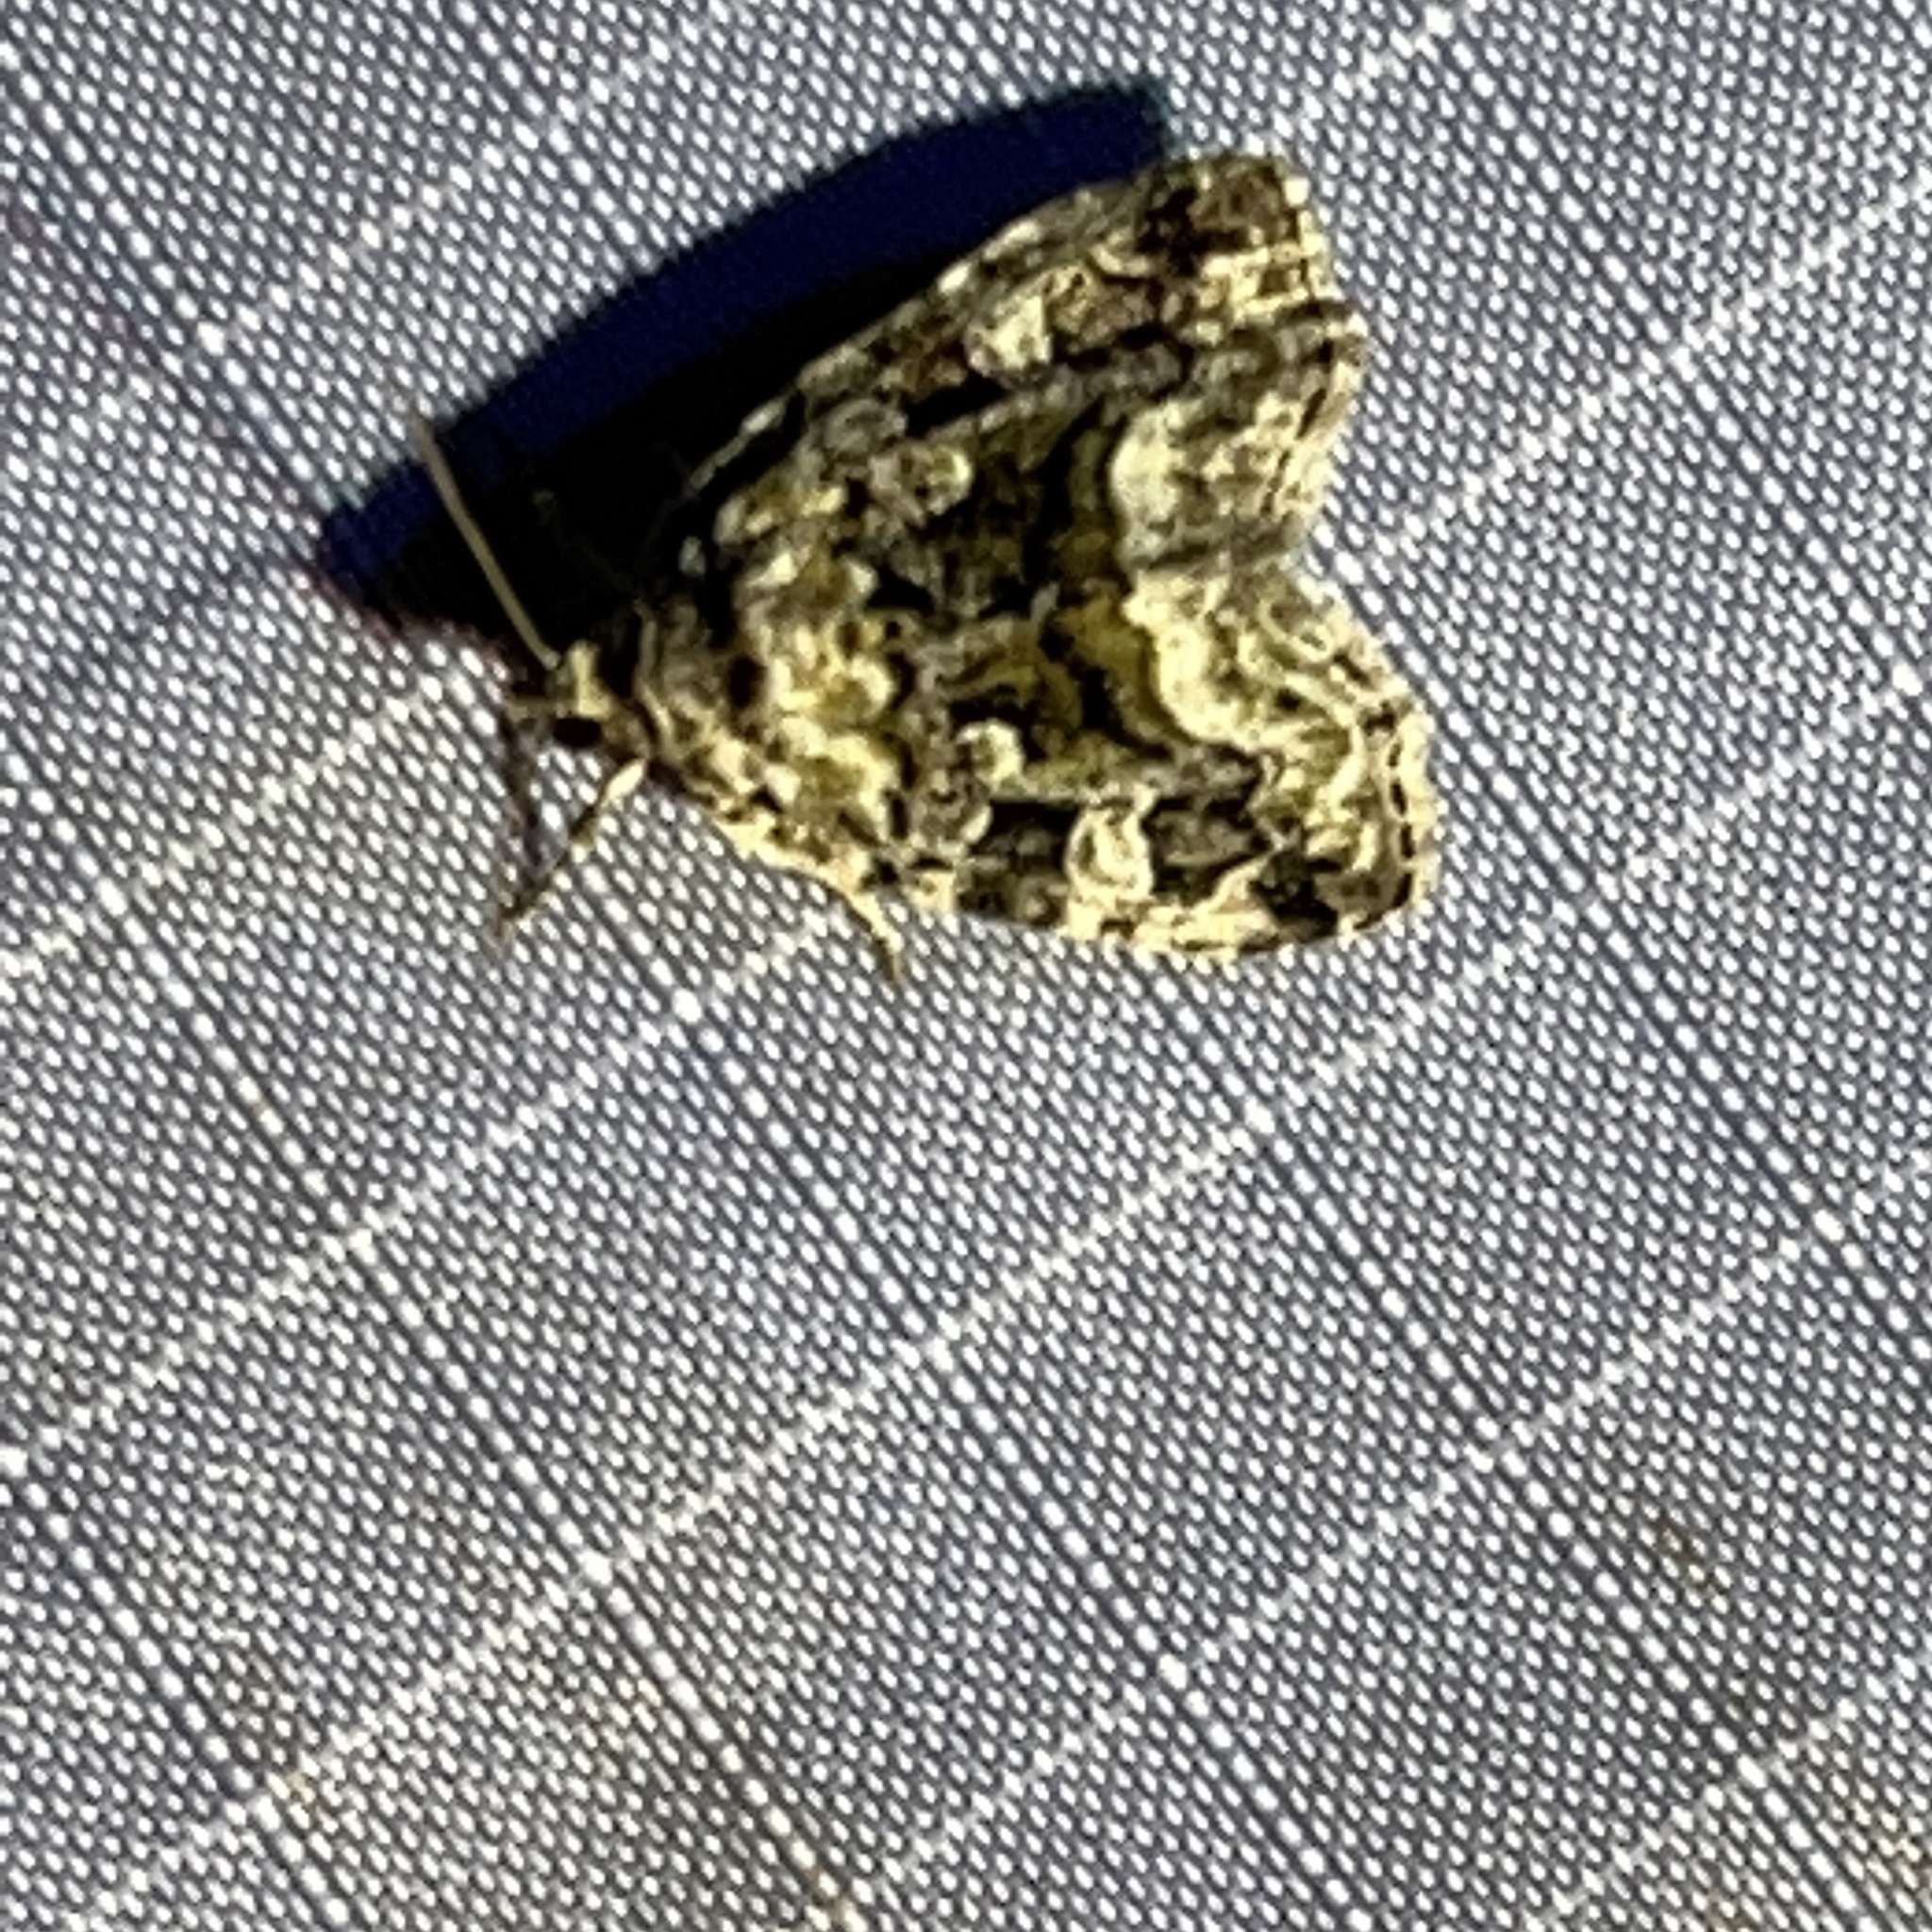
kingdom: Animalia
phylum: Arthropoda
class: Insecta
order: Lepidoptera
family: Noctuidae
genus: Protodeltote
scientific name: Protodeltote muscosula
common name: Large mossy glyph
